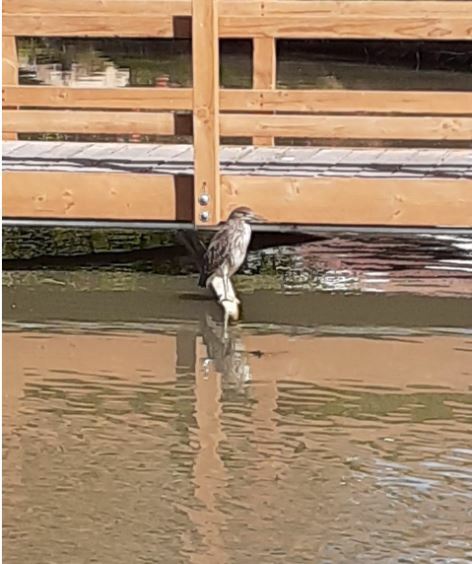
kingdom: Animalia
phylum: Chordata
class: Aves
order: Pelecaniformes
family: Ardeidae
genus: Nycticorax
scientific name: Nycticorax nycticorax
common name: Black-crowned night heron
